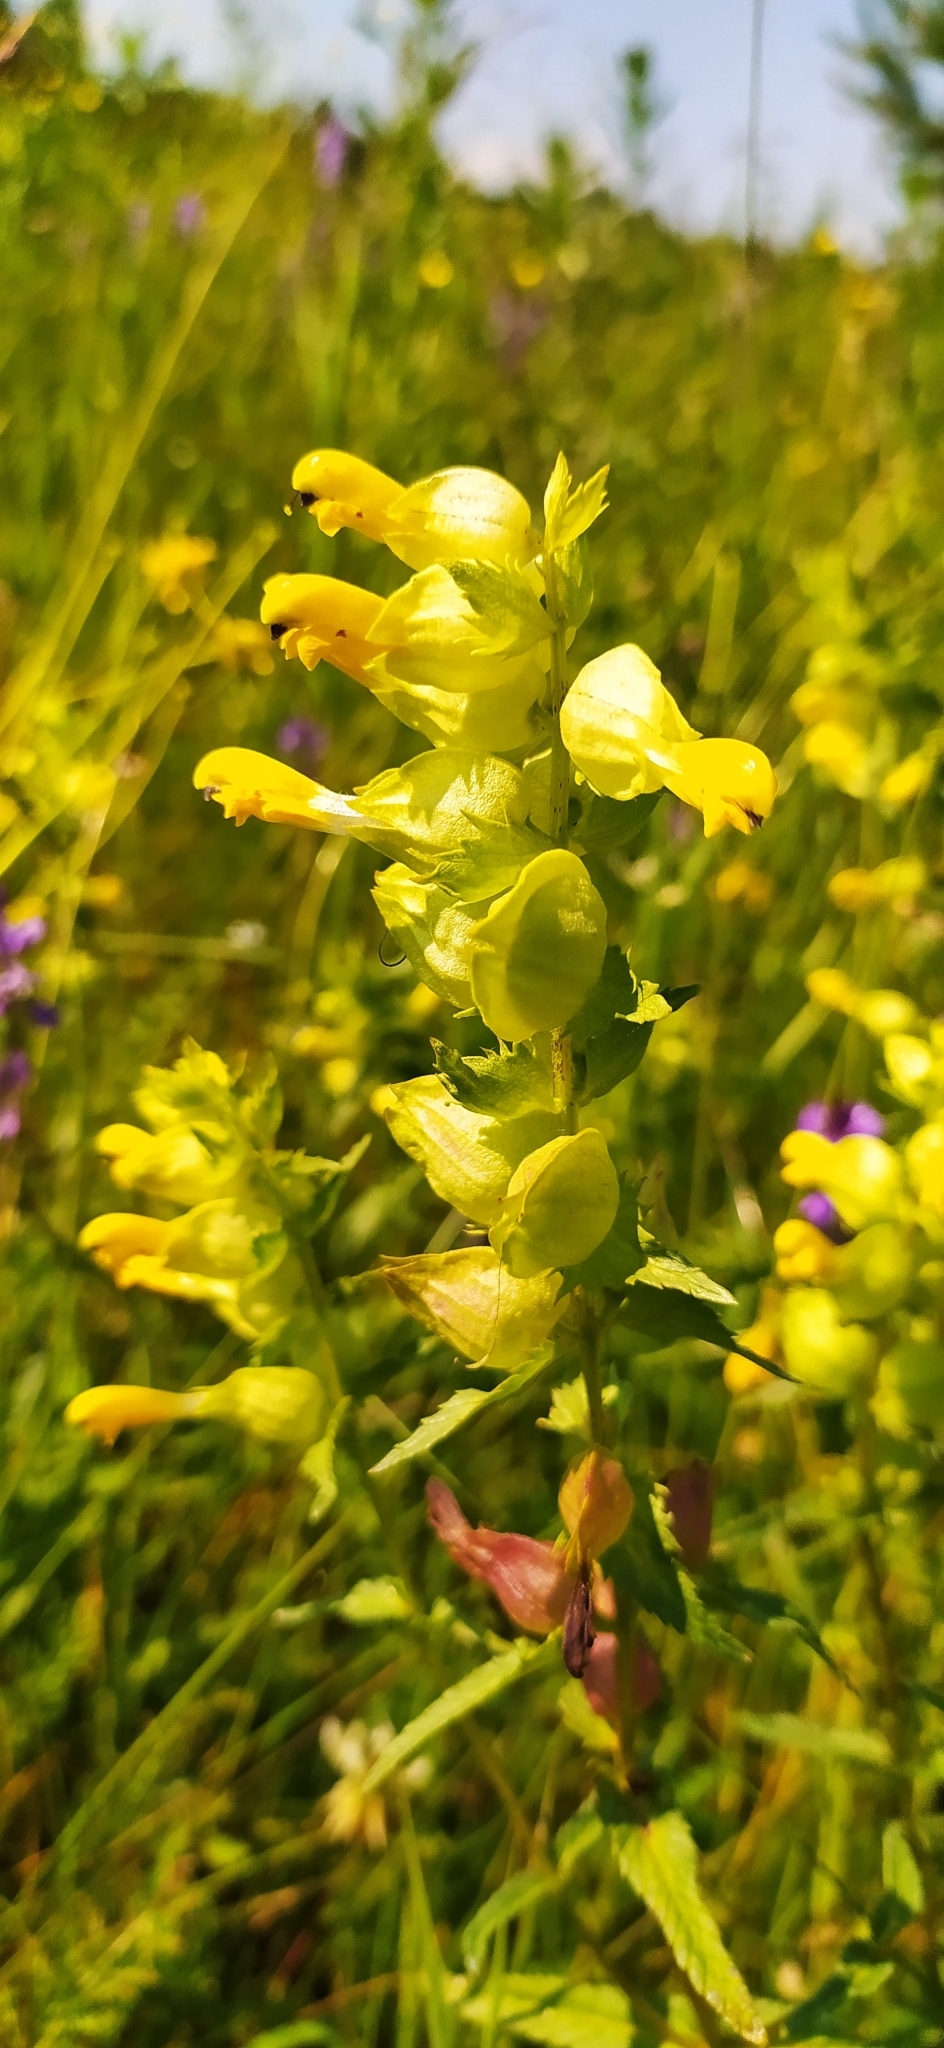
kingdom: Plantae
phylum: Tracheophyta
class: Magnoliopsida
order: Lamiales
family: Orobanchaceae
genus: Rhinanthus
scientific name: Rhinanthus serotinus
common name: Late-flowering yellow rattle
